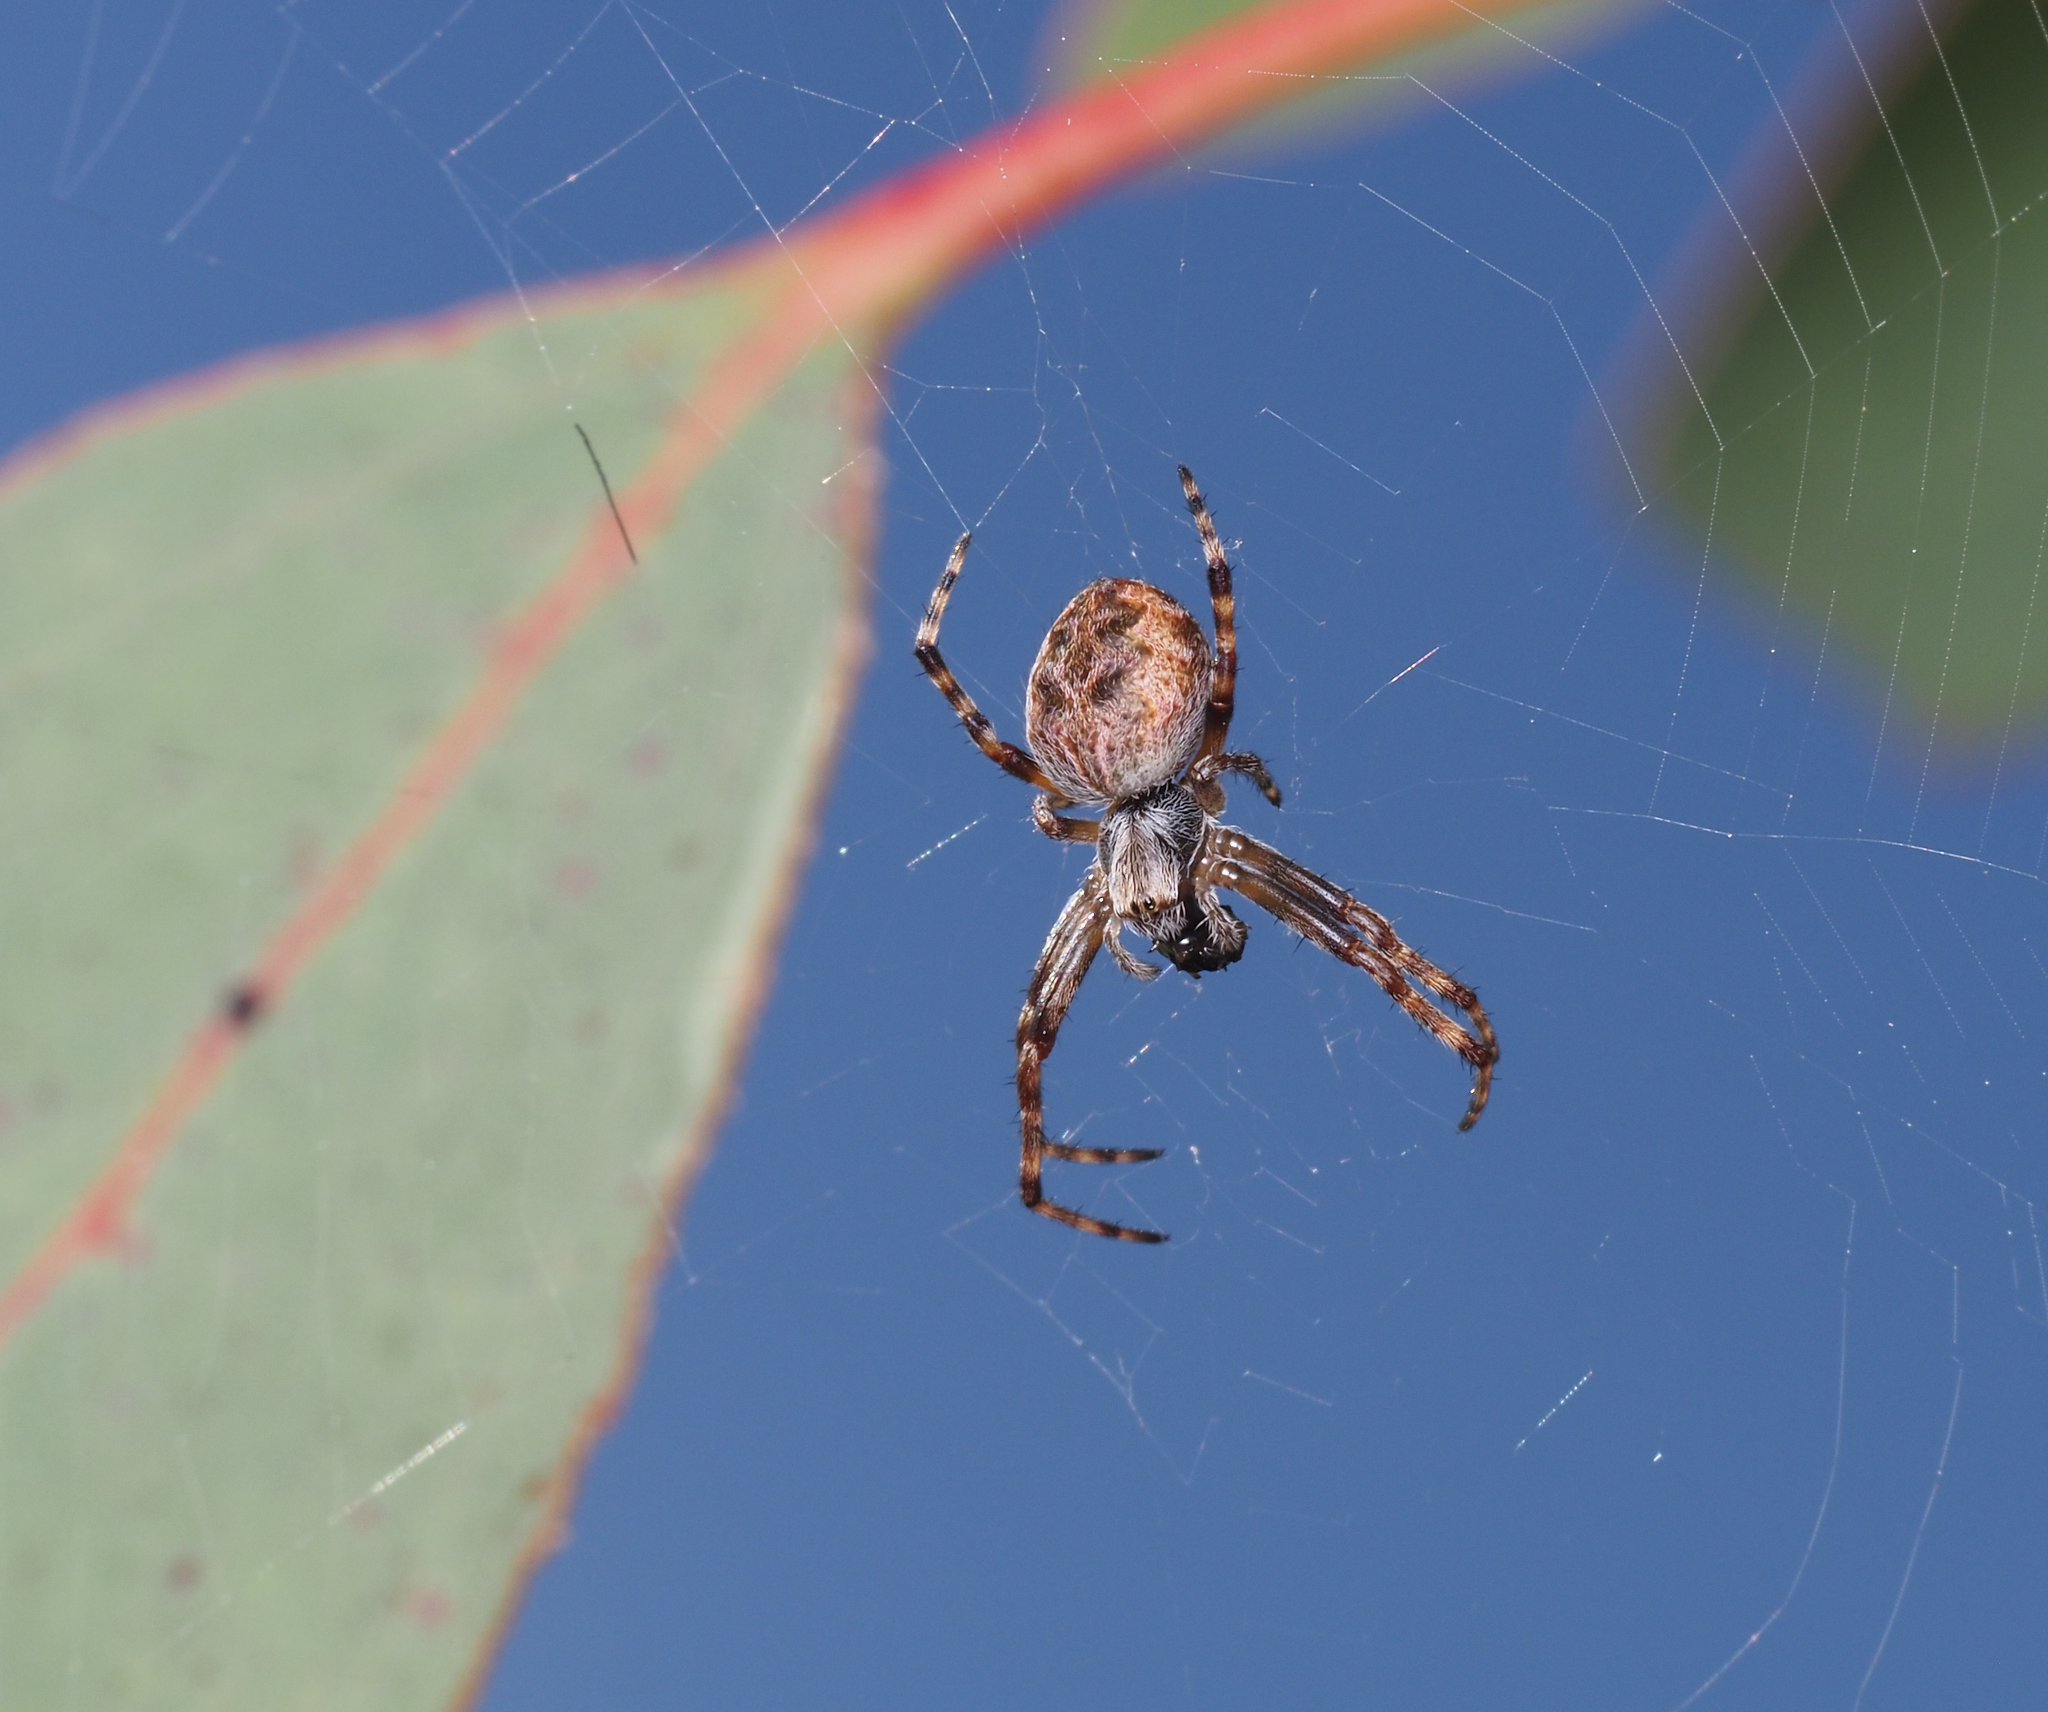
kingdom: Animalia
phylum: Arthropoda
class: Arachnida
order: Araneae
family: Araneidae
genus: Salsa
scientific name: Salsa
